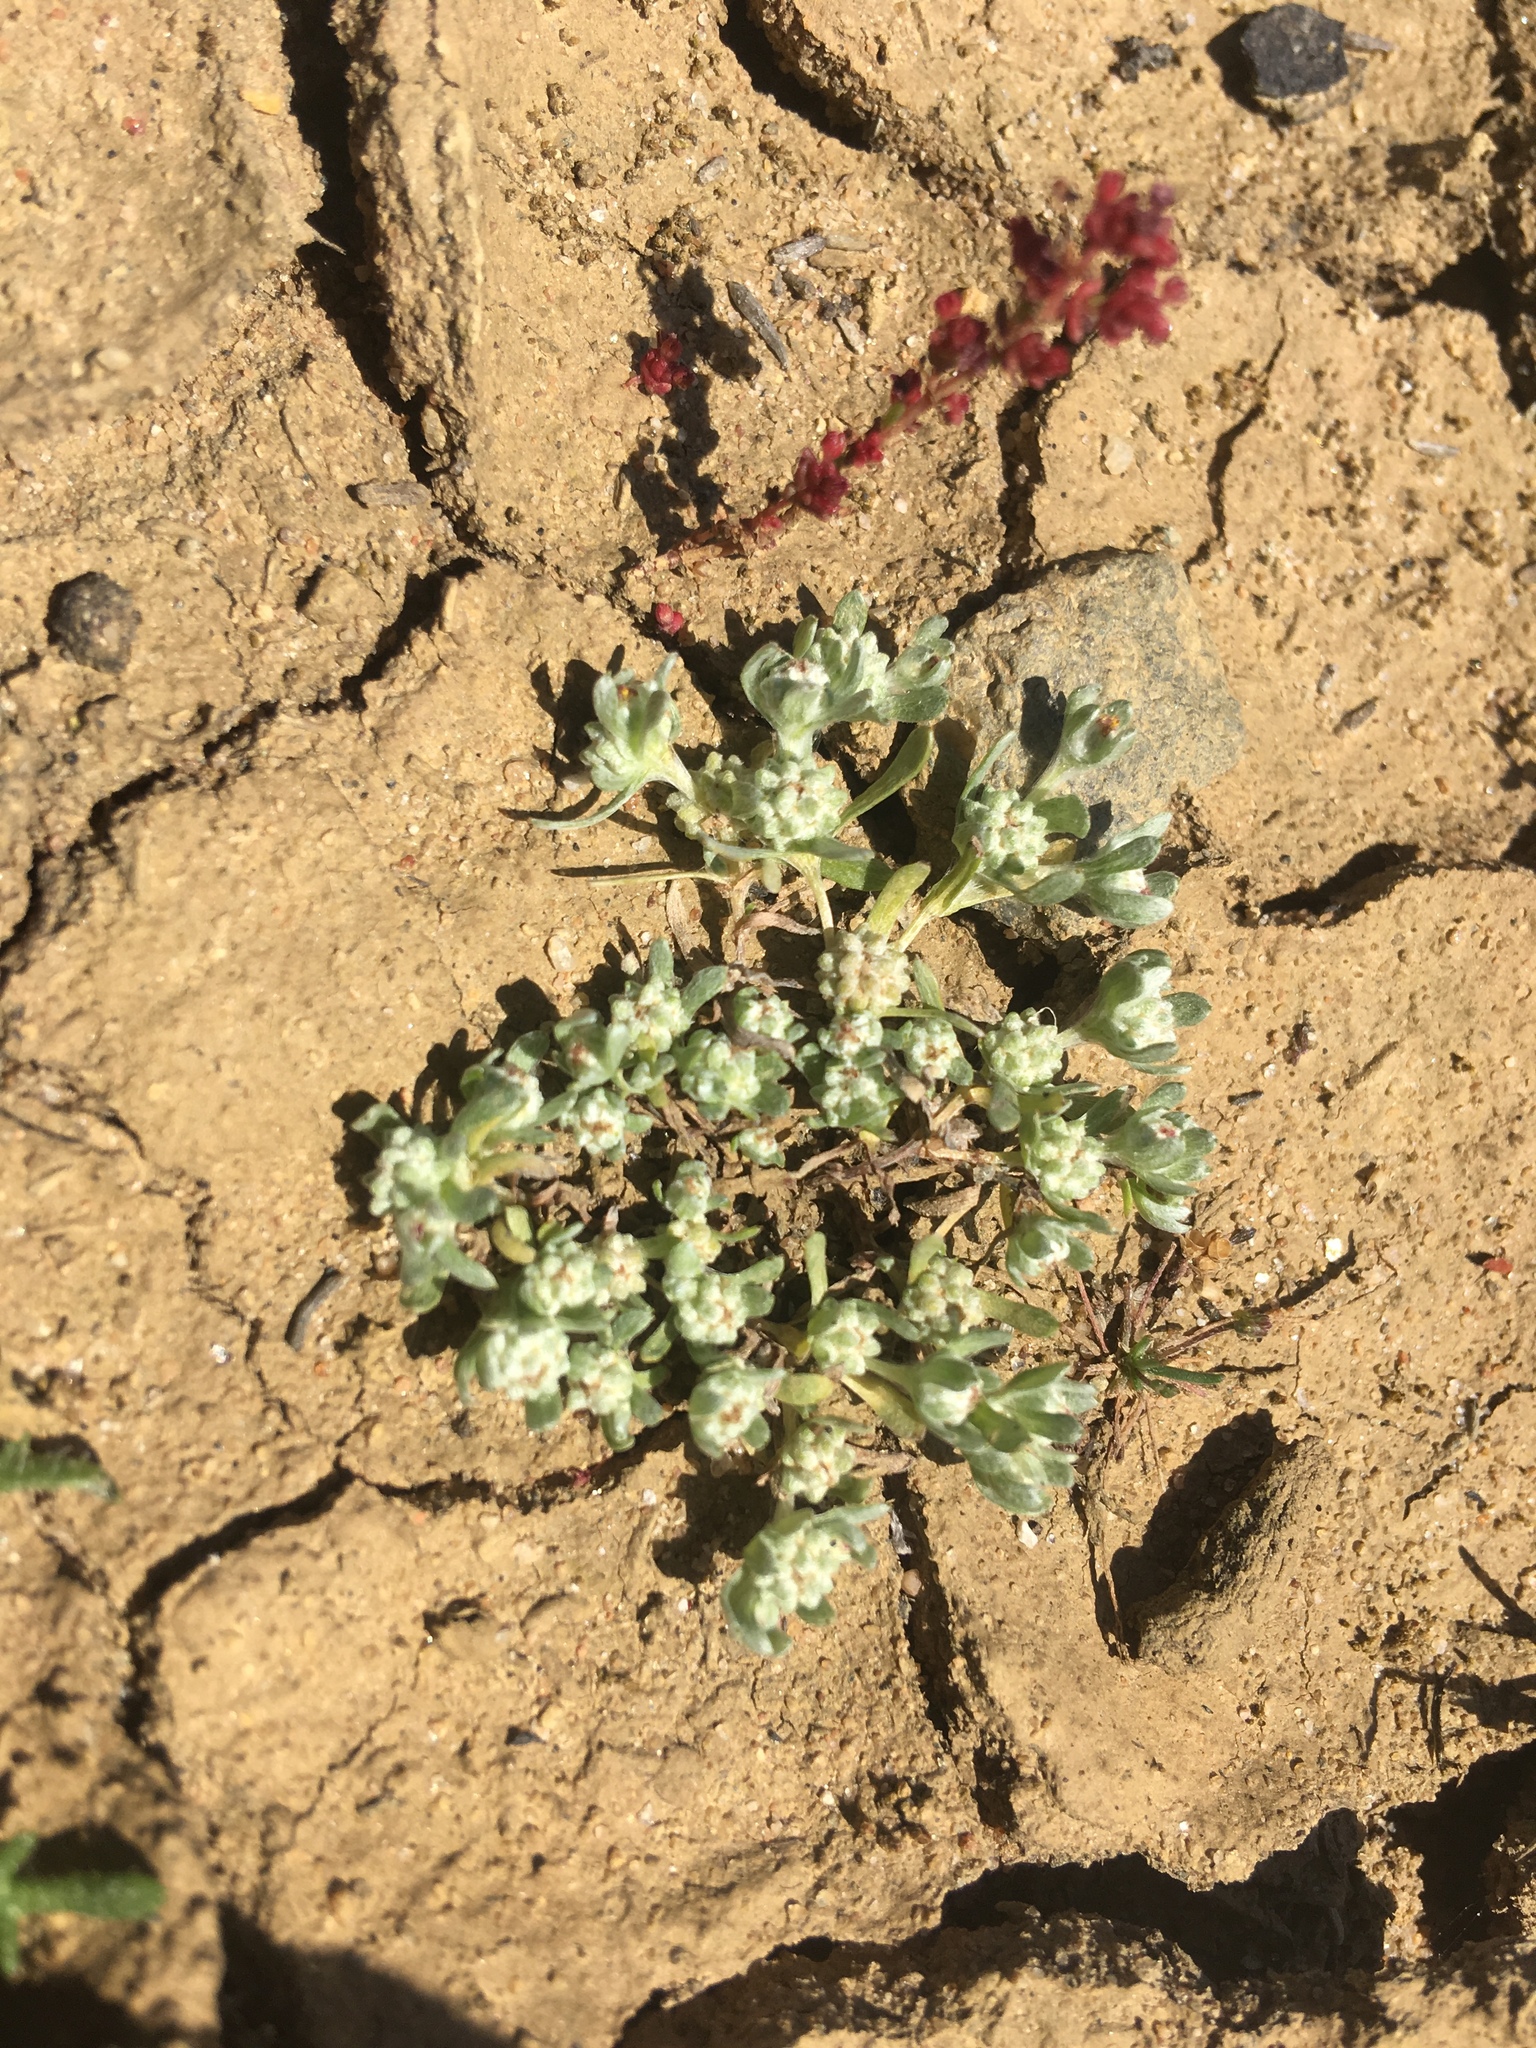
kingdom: Plantae
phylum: Tracheophyta
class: Magnoliopsida
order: Asterales
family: Asteraceae
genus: Psilocarphus
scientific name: Psilocarphus tenellus
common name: Slender woolly-marbles
